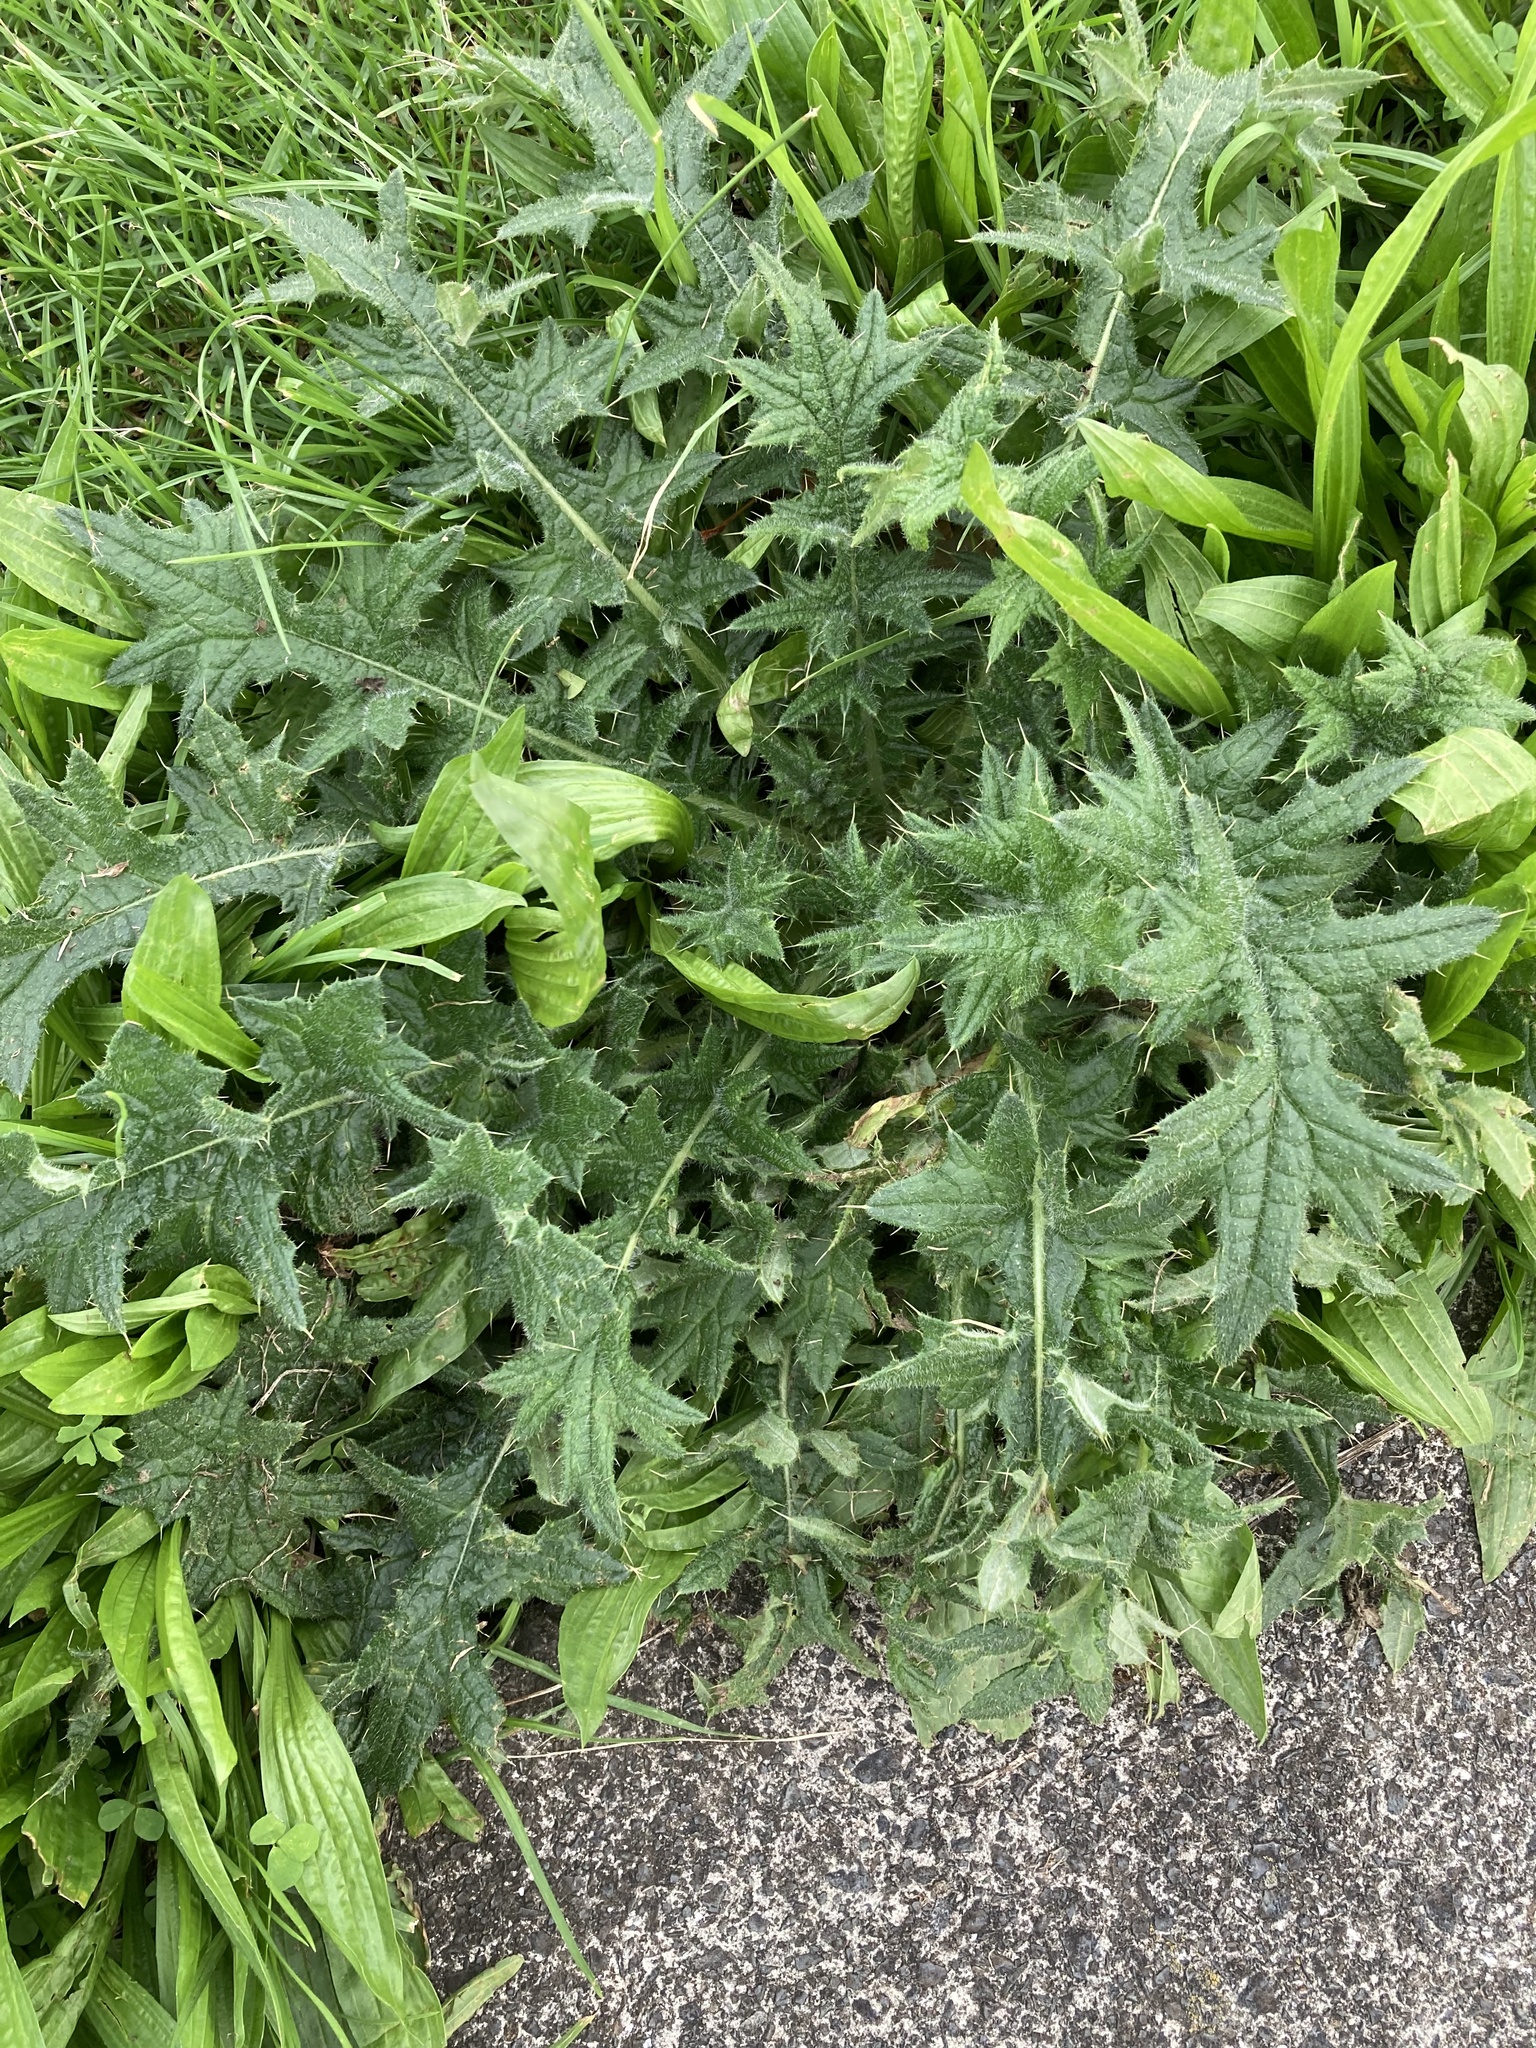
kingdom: Plantae
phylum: Tracheophyta
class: Magnoliopsida
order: Asterales
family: Asteraceae
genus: Cirsium
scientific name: Cirsium vulgare
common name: Bull thistle
